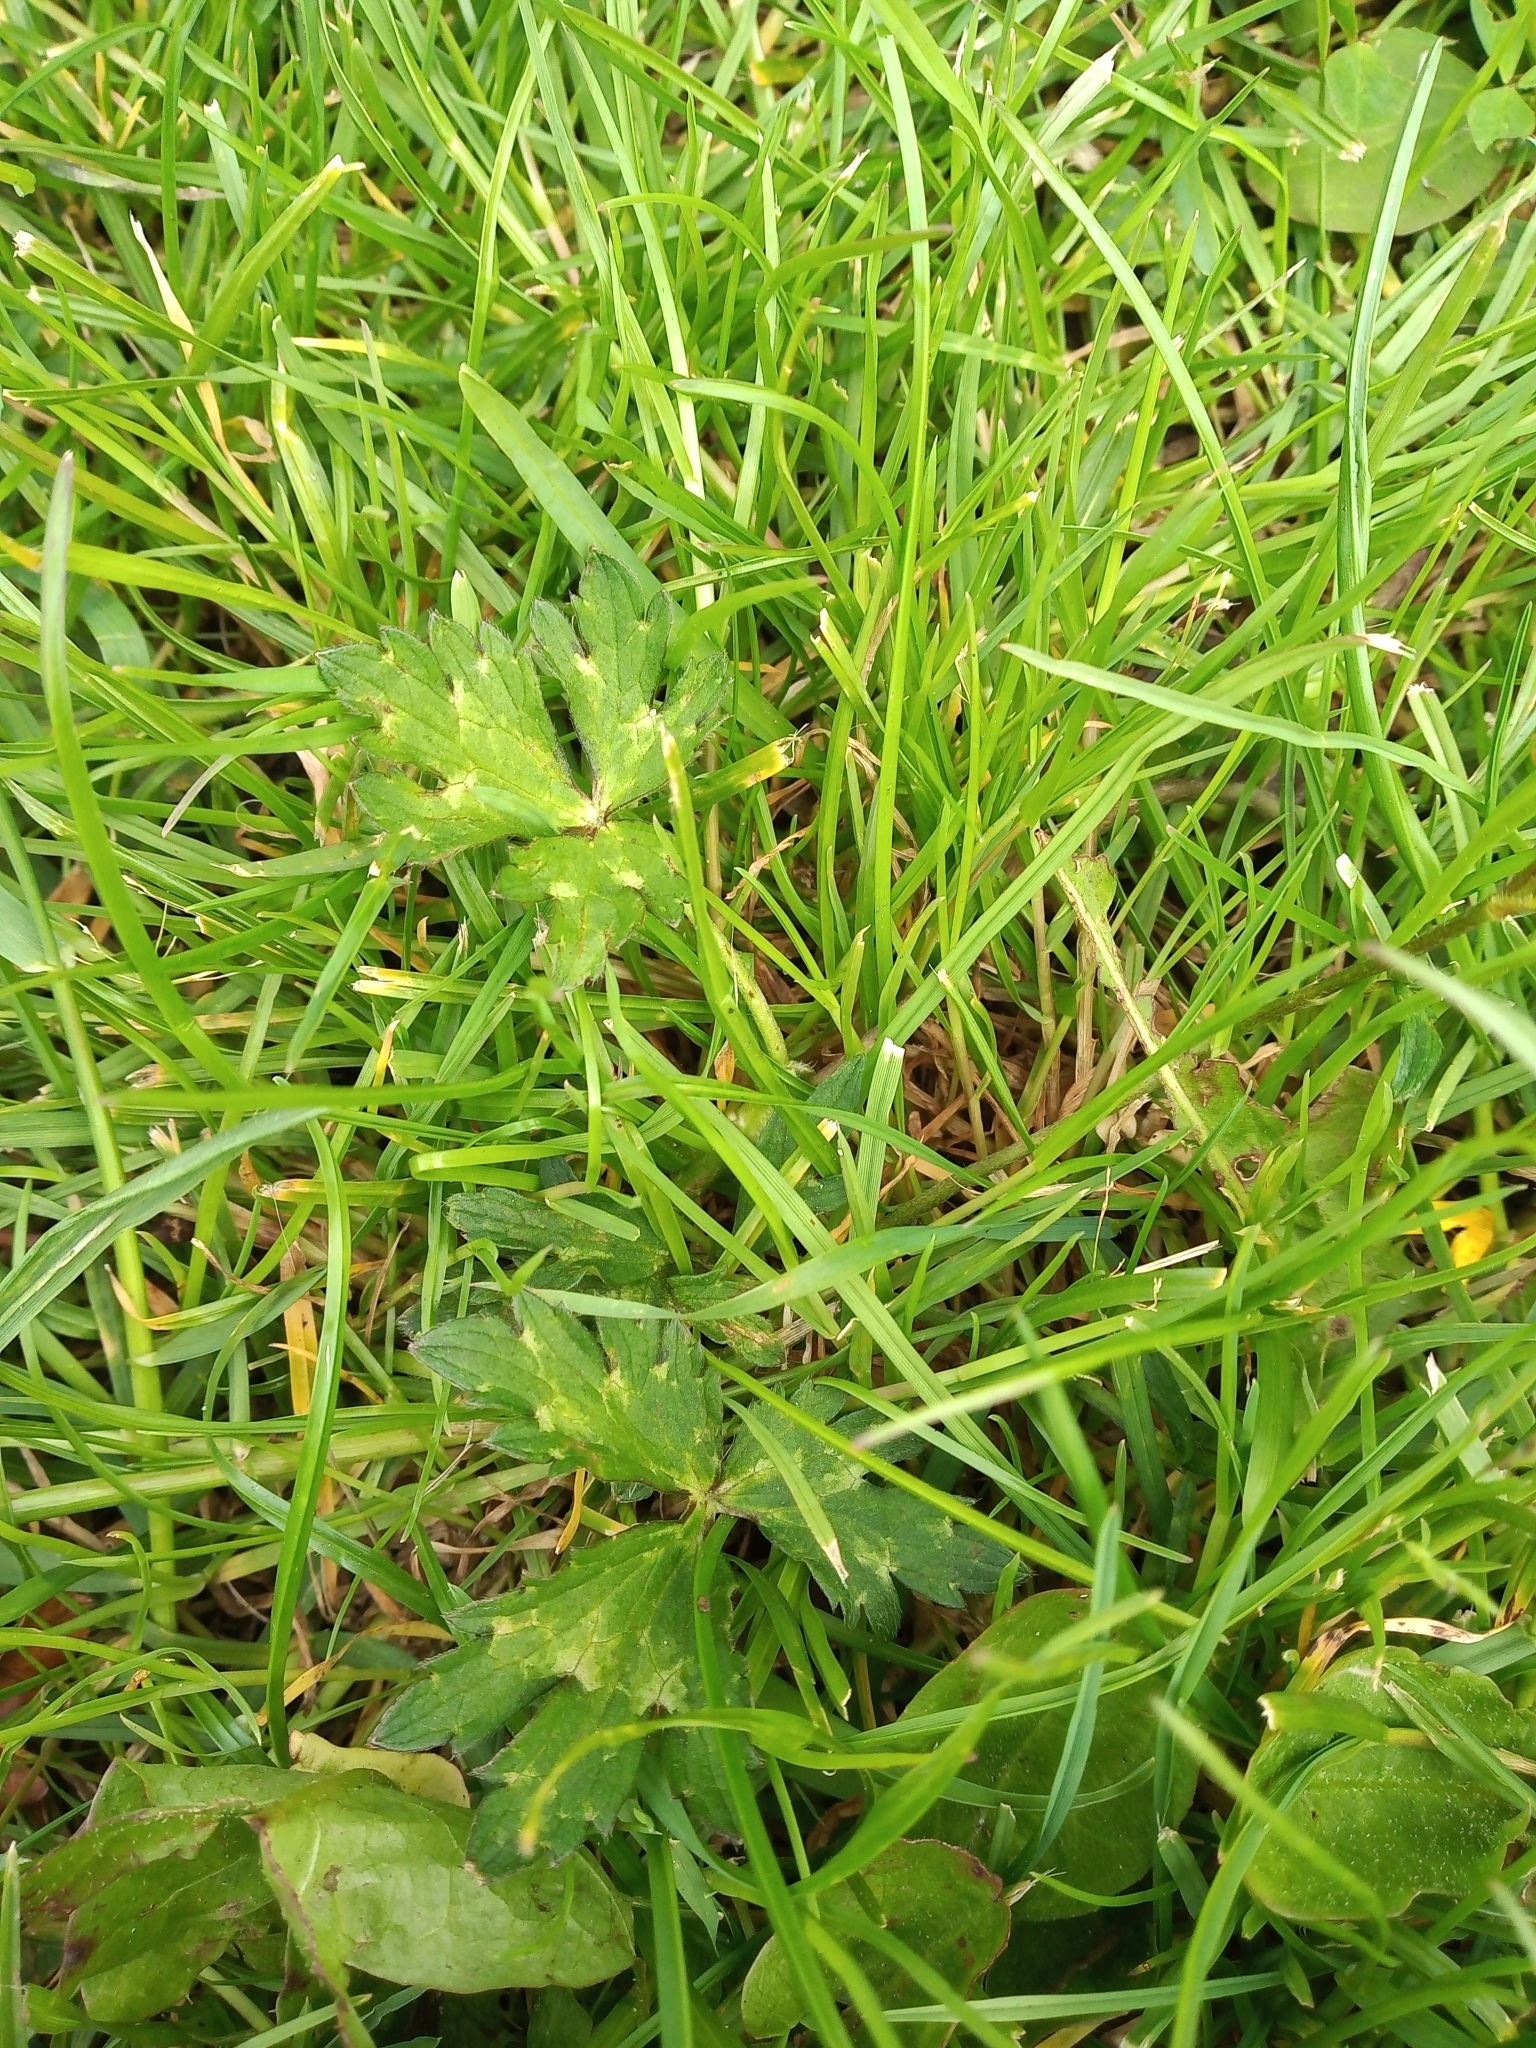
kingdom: Plantae
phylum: Tracheophyta
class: Magnoliopsida
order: Ranunculales
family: Ranunculaceae
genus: Ranunculus
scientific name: Ranunculus repens
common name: Creeping buttercup
